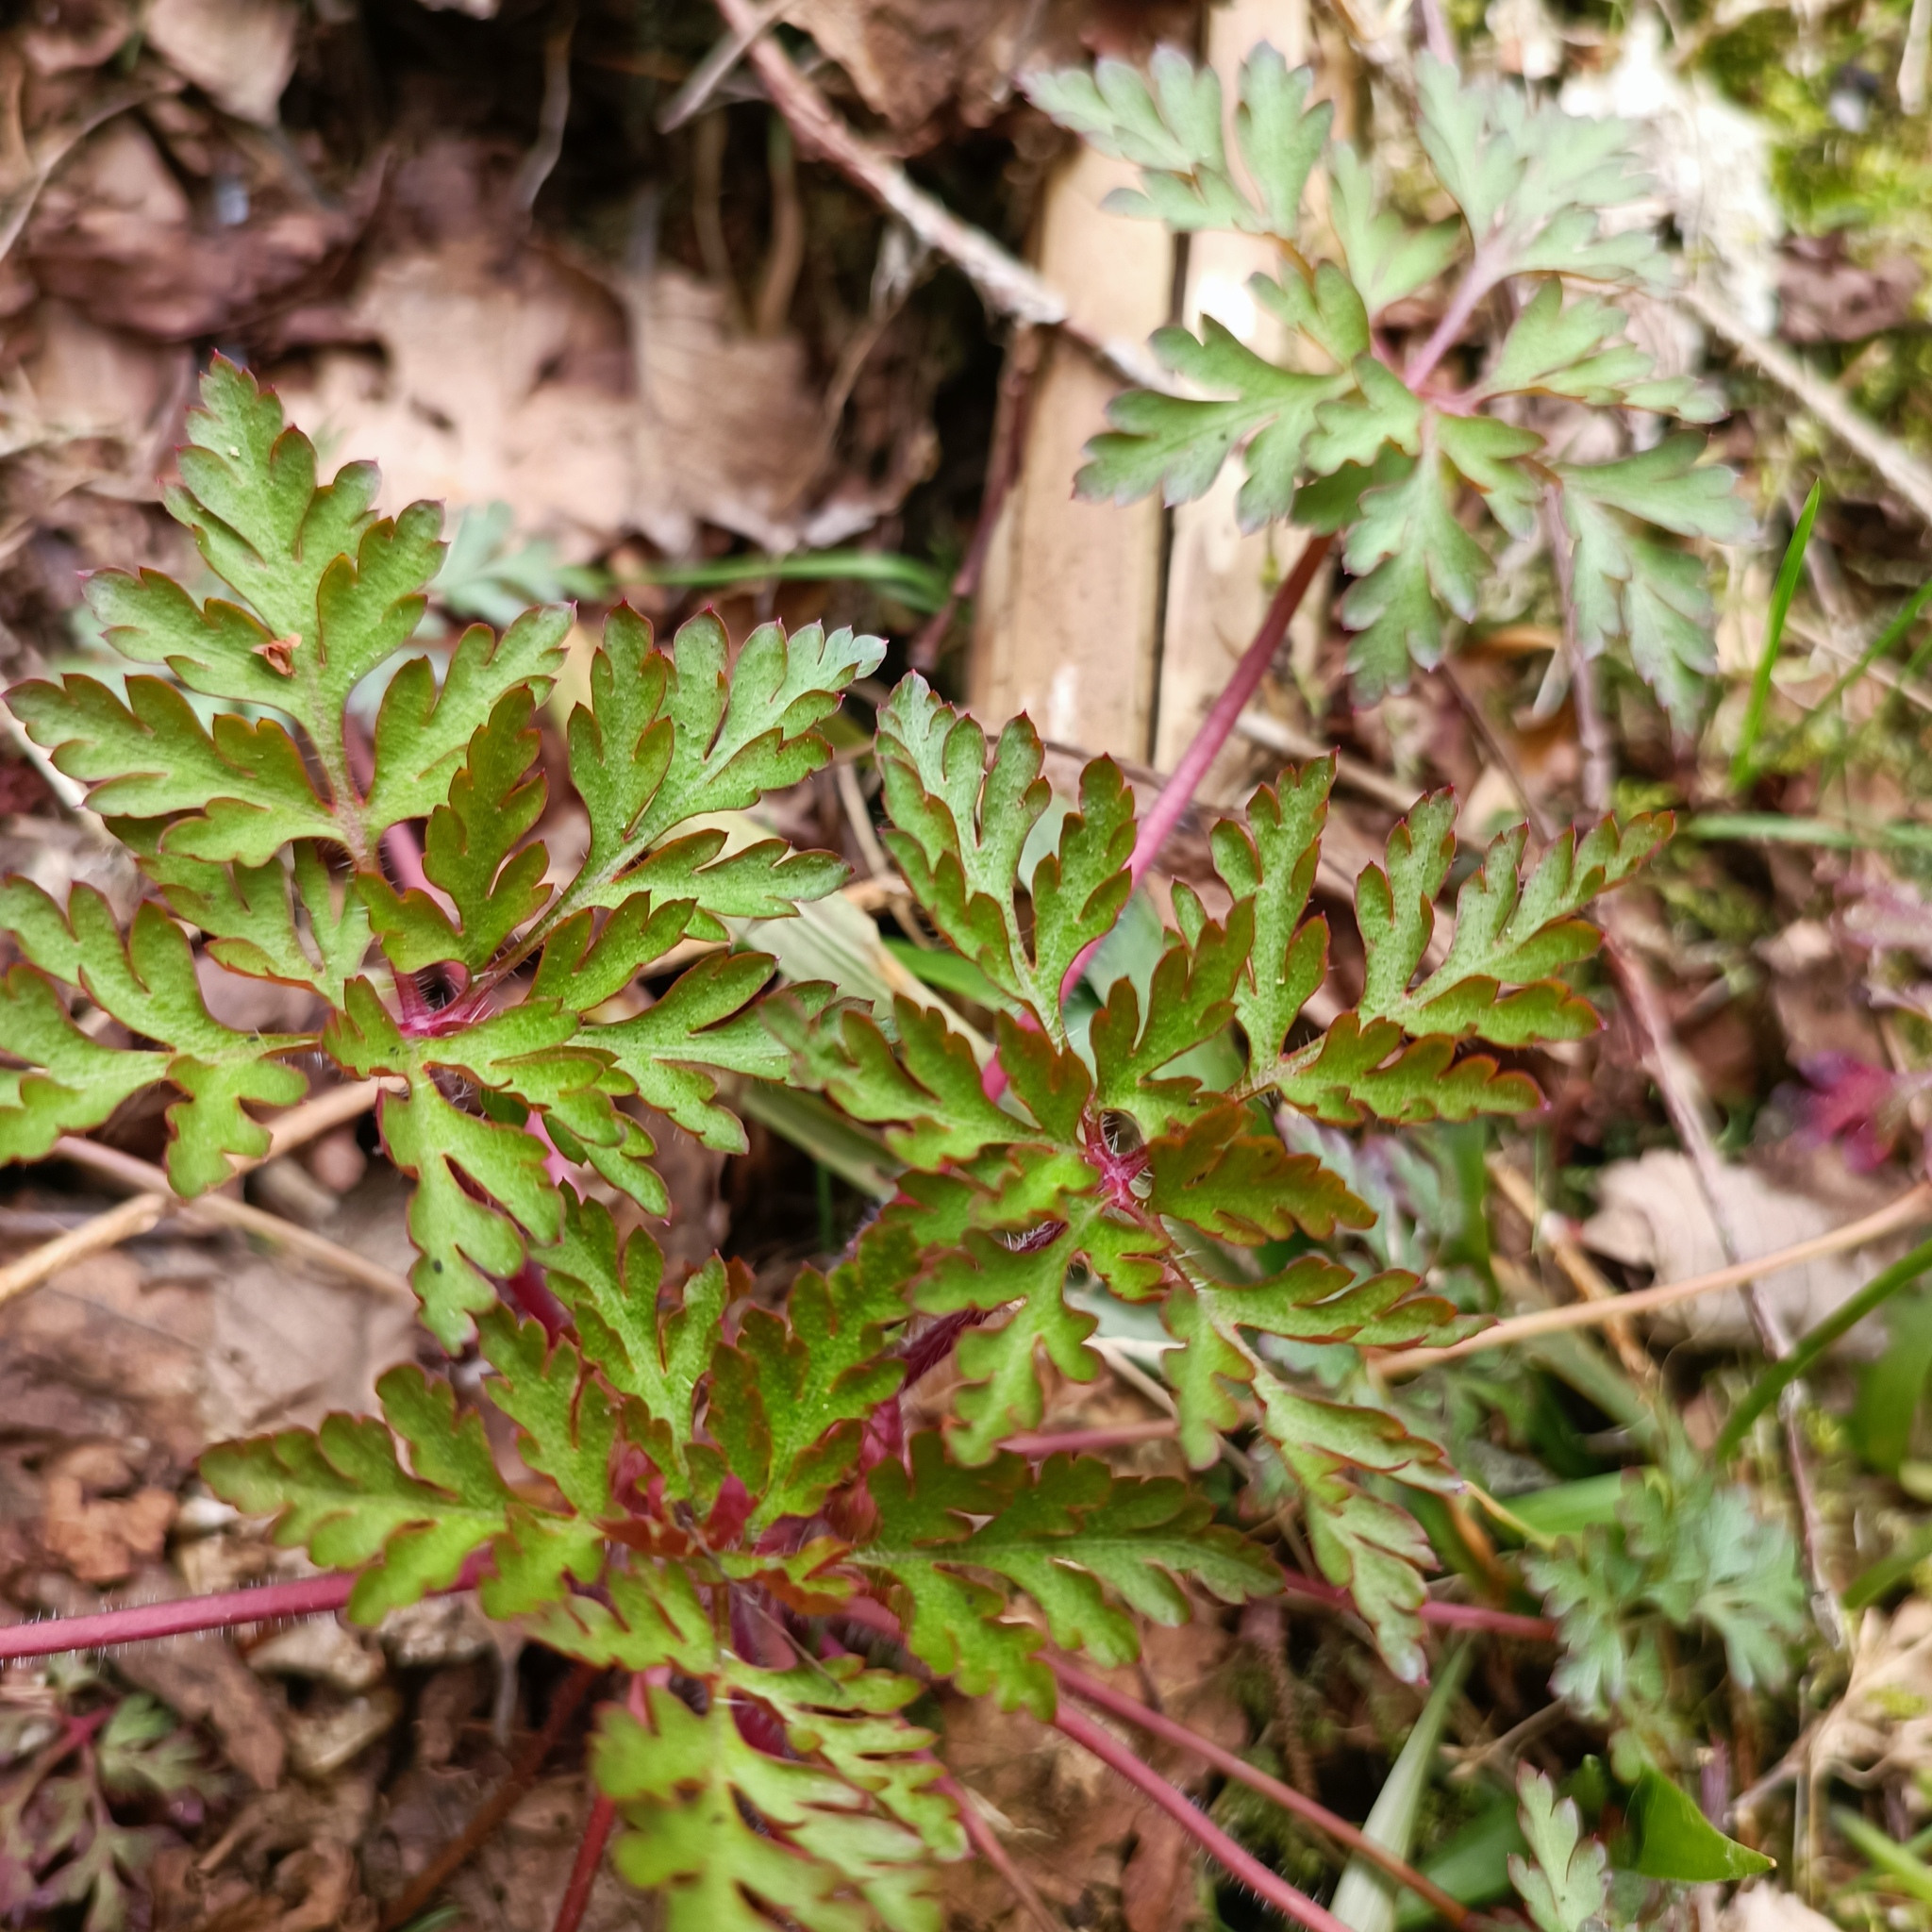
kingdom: Plantae
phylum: Tracheophyta
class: Magnoliopsida
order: Geraniales
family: Geraniaceae
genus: Geranium
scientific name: Geranium robertianum
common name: Herb-robert
